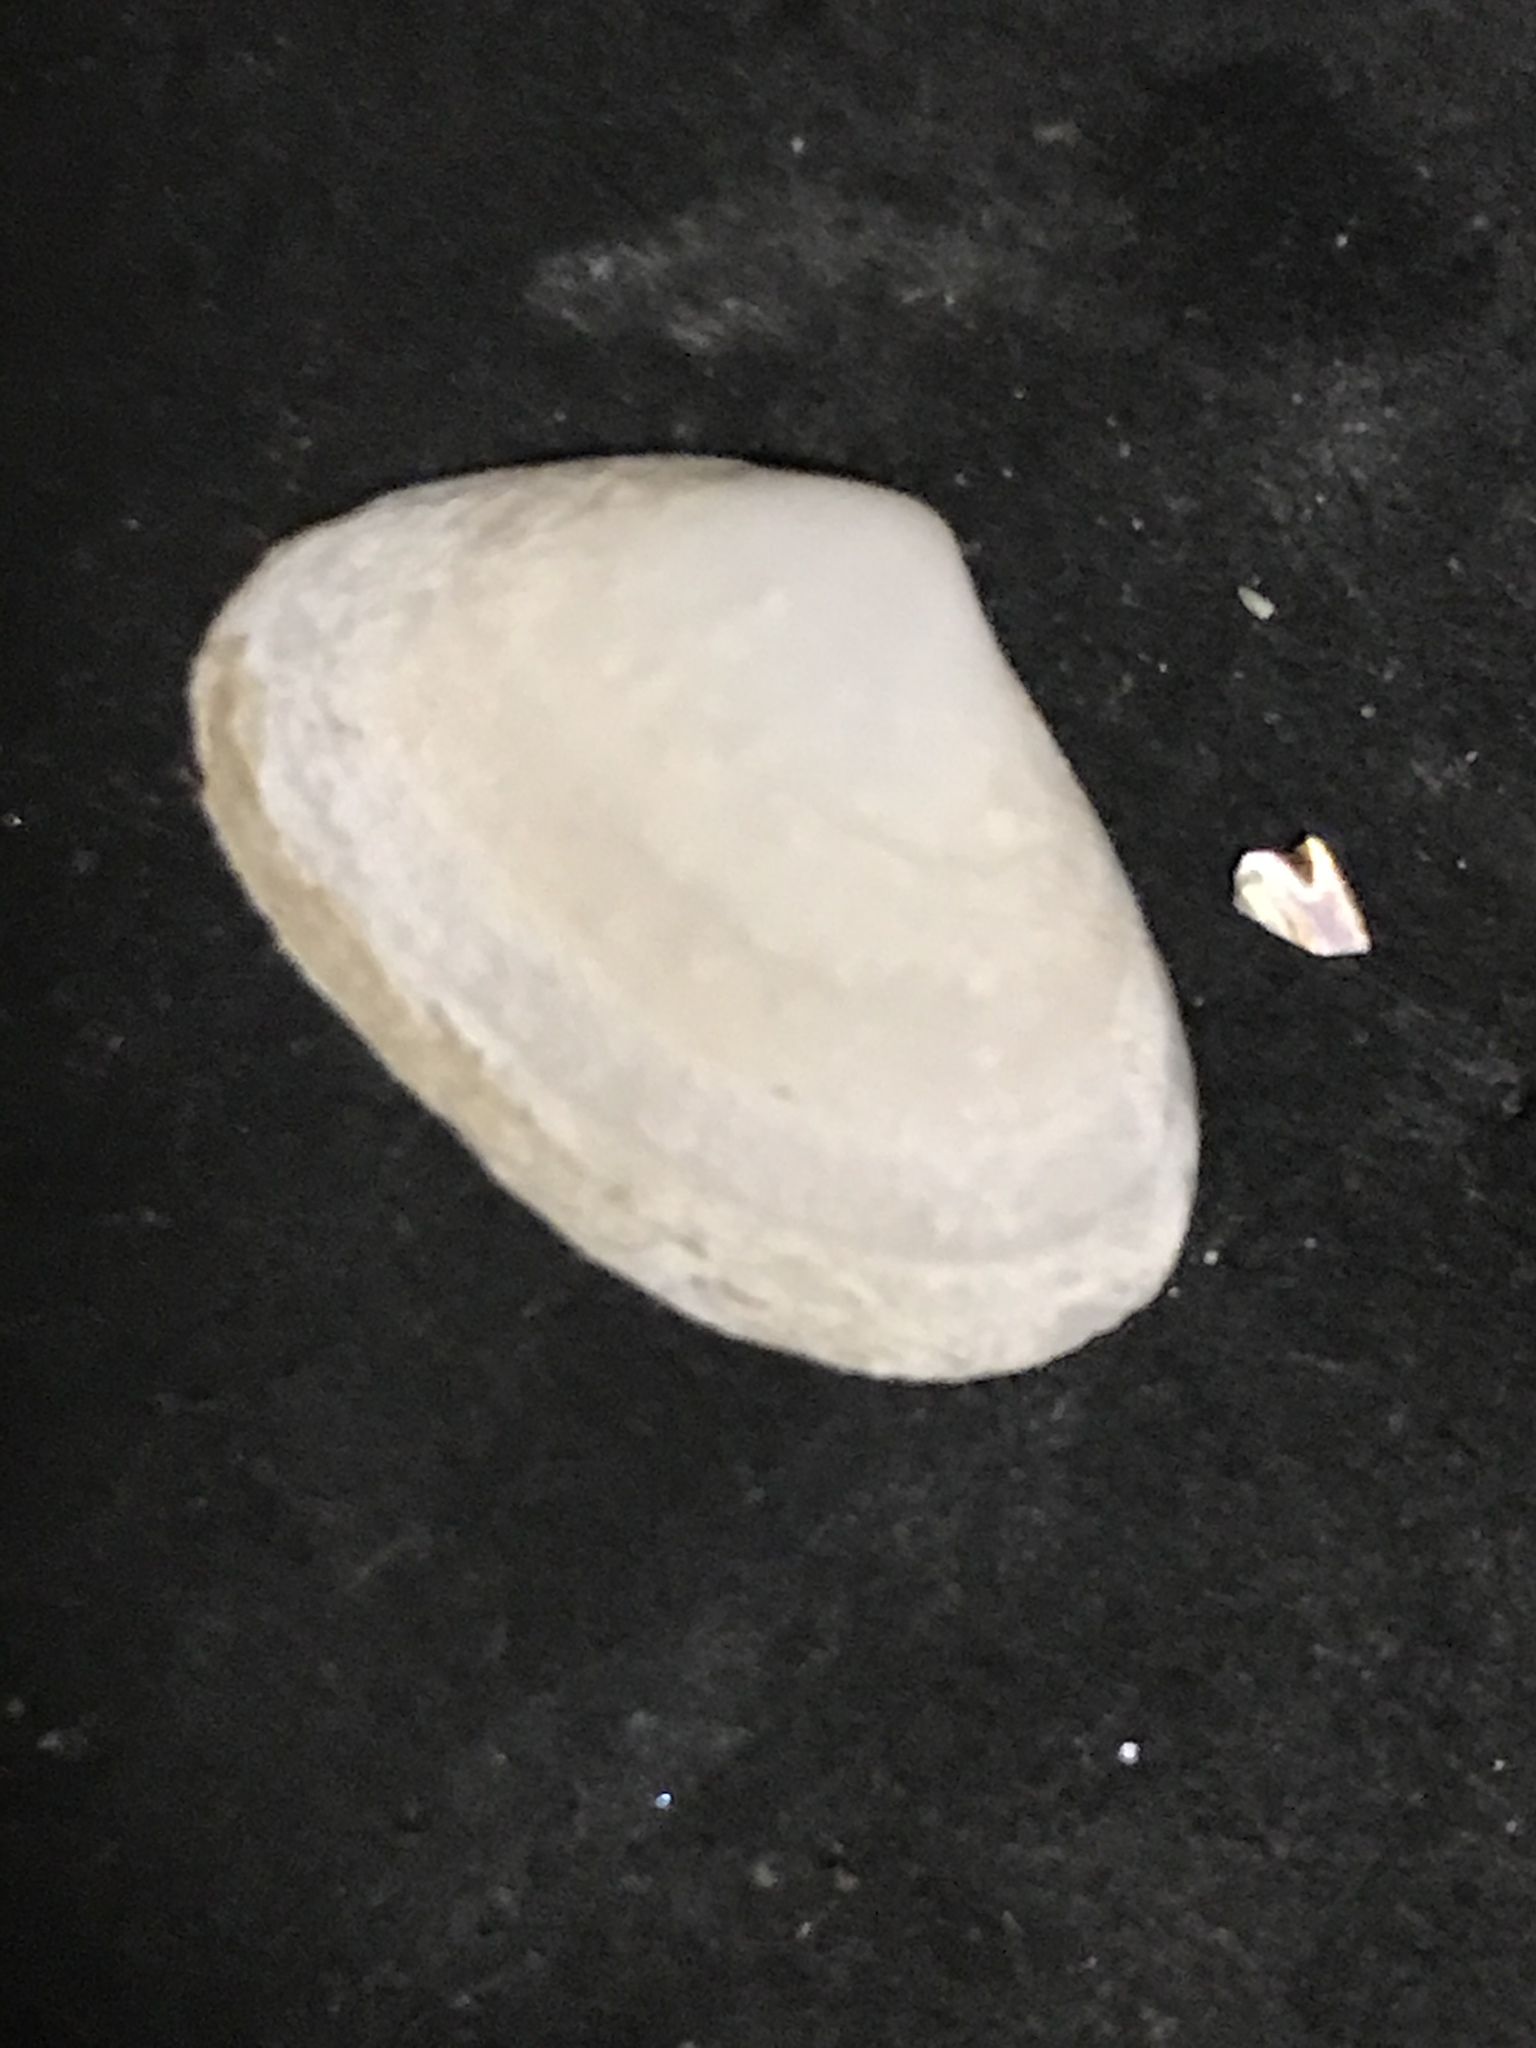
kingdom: Animalia
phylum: Mollusca
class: Bivalvia
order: Venerida
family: Mactridae
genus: Simomactra
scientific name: Simomactra falcata
